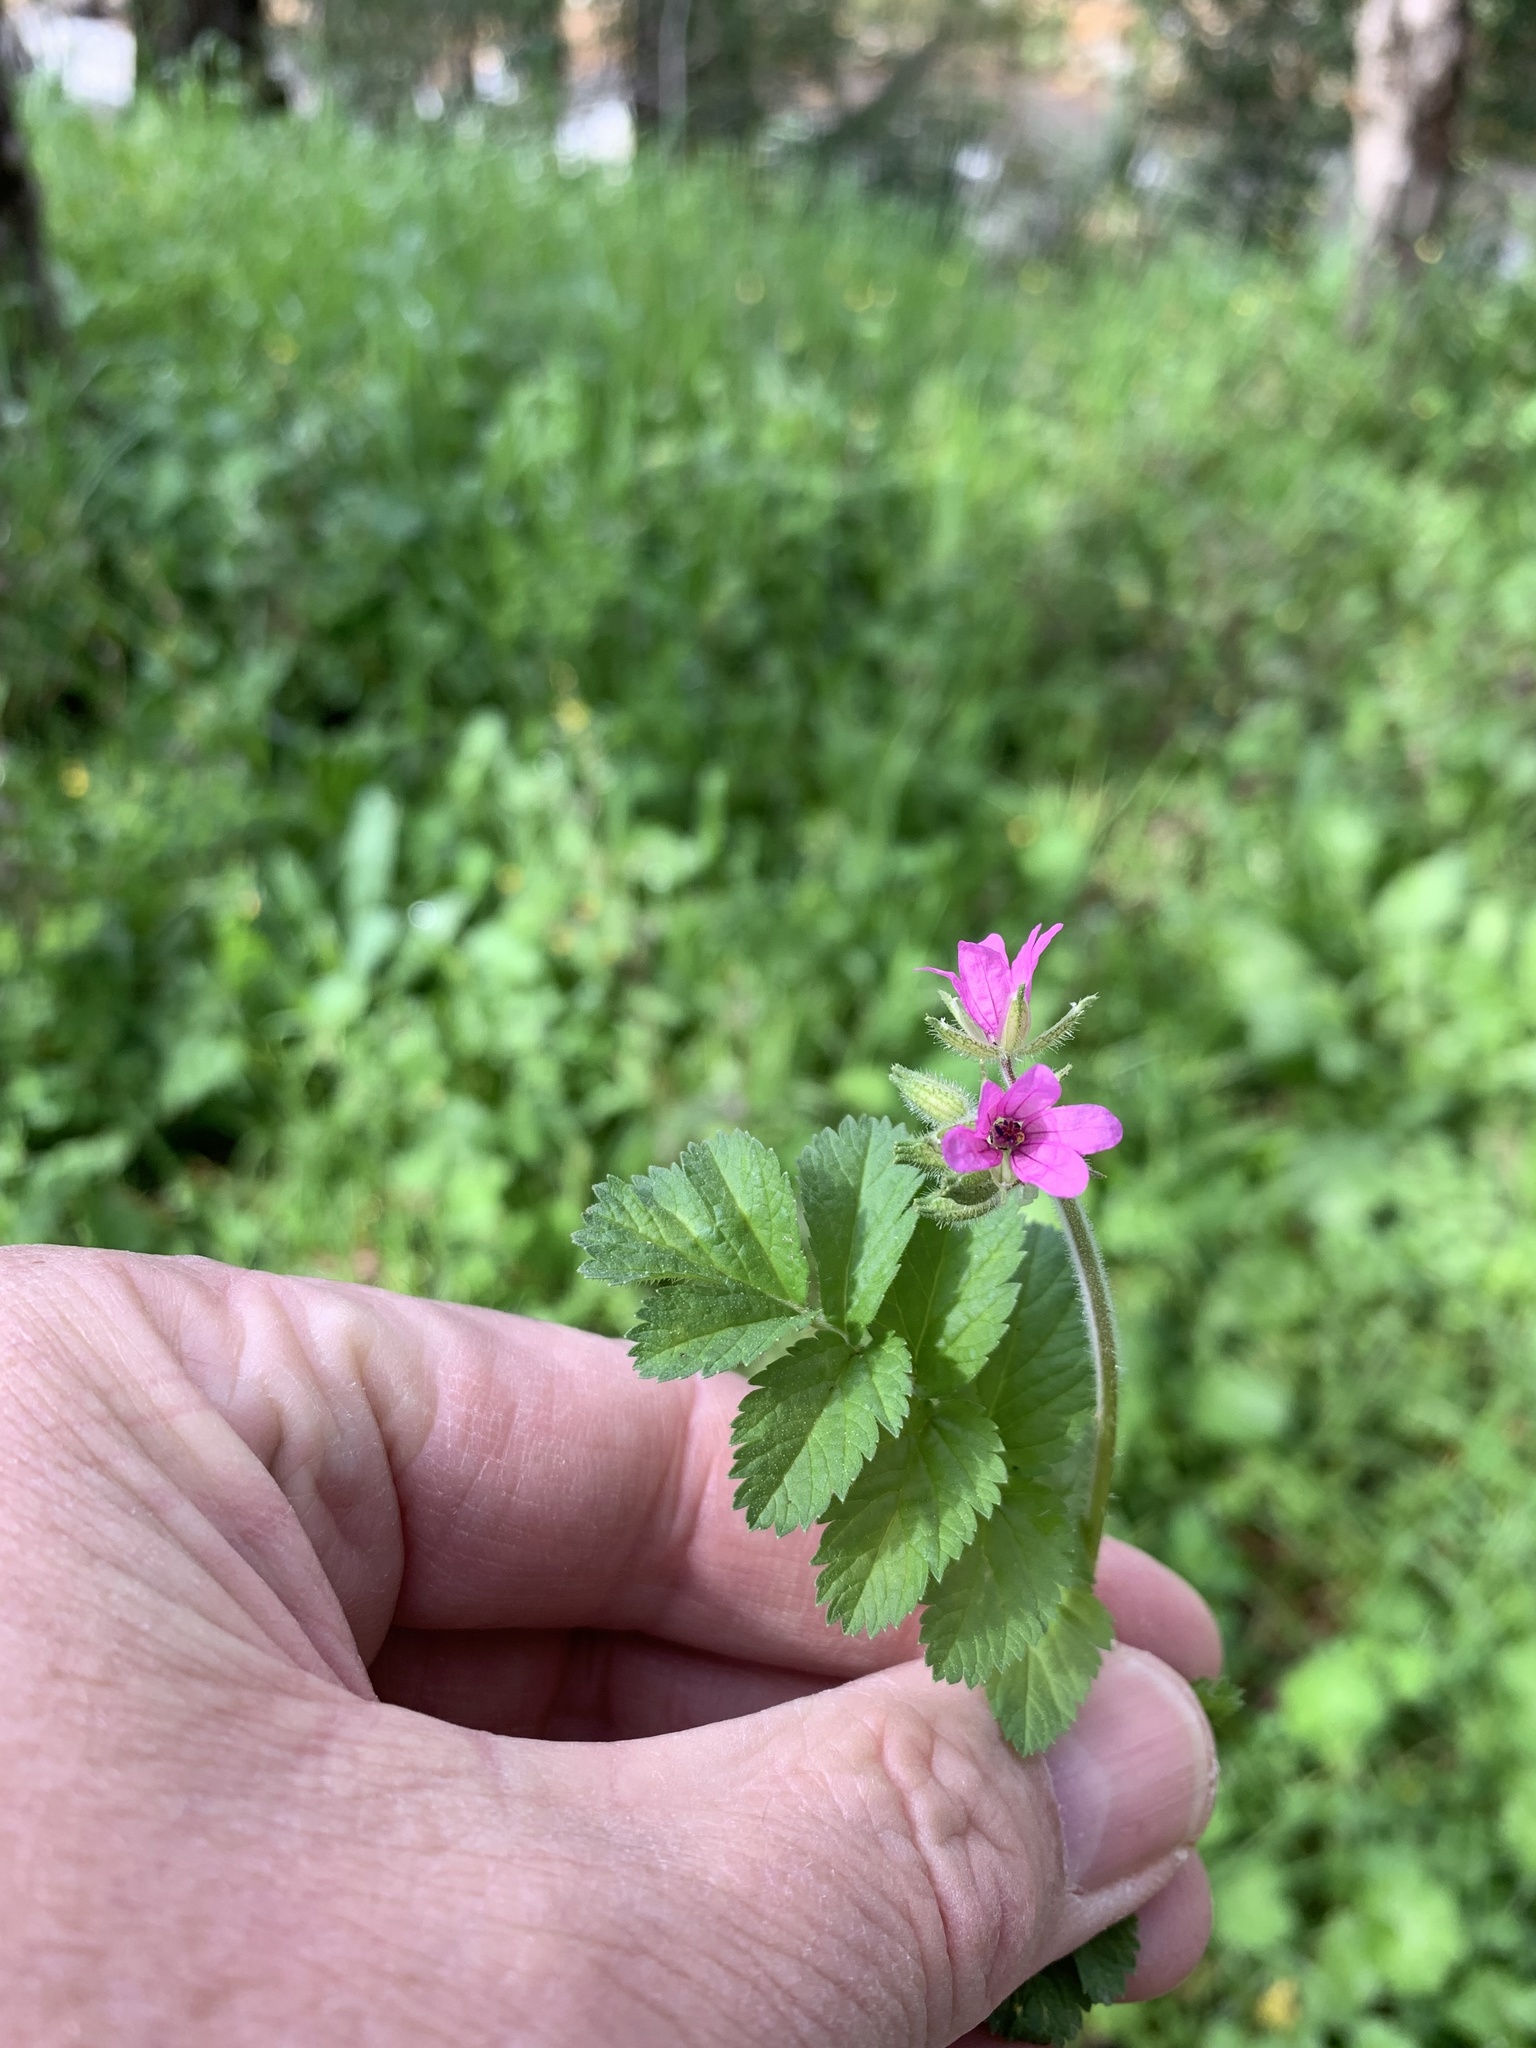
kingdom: Plantae
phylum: Tracheophyta
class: Magnoliopsida
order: Geraniales
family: Geraniaceae
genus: Erodium
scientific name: Erodium moschatum
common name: Musk stork's-bill
